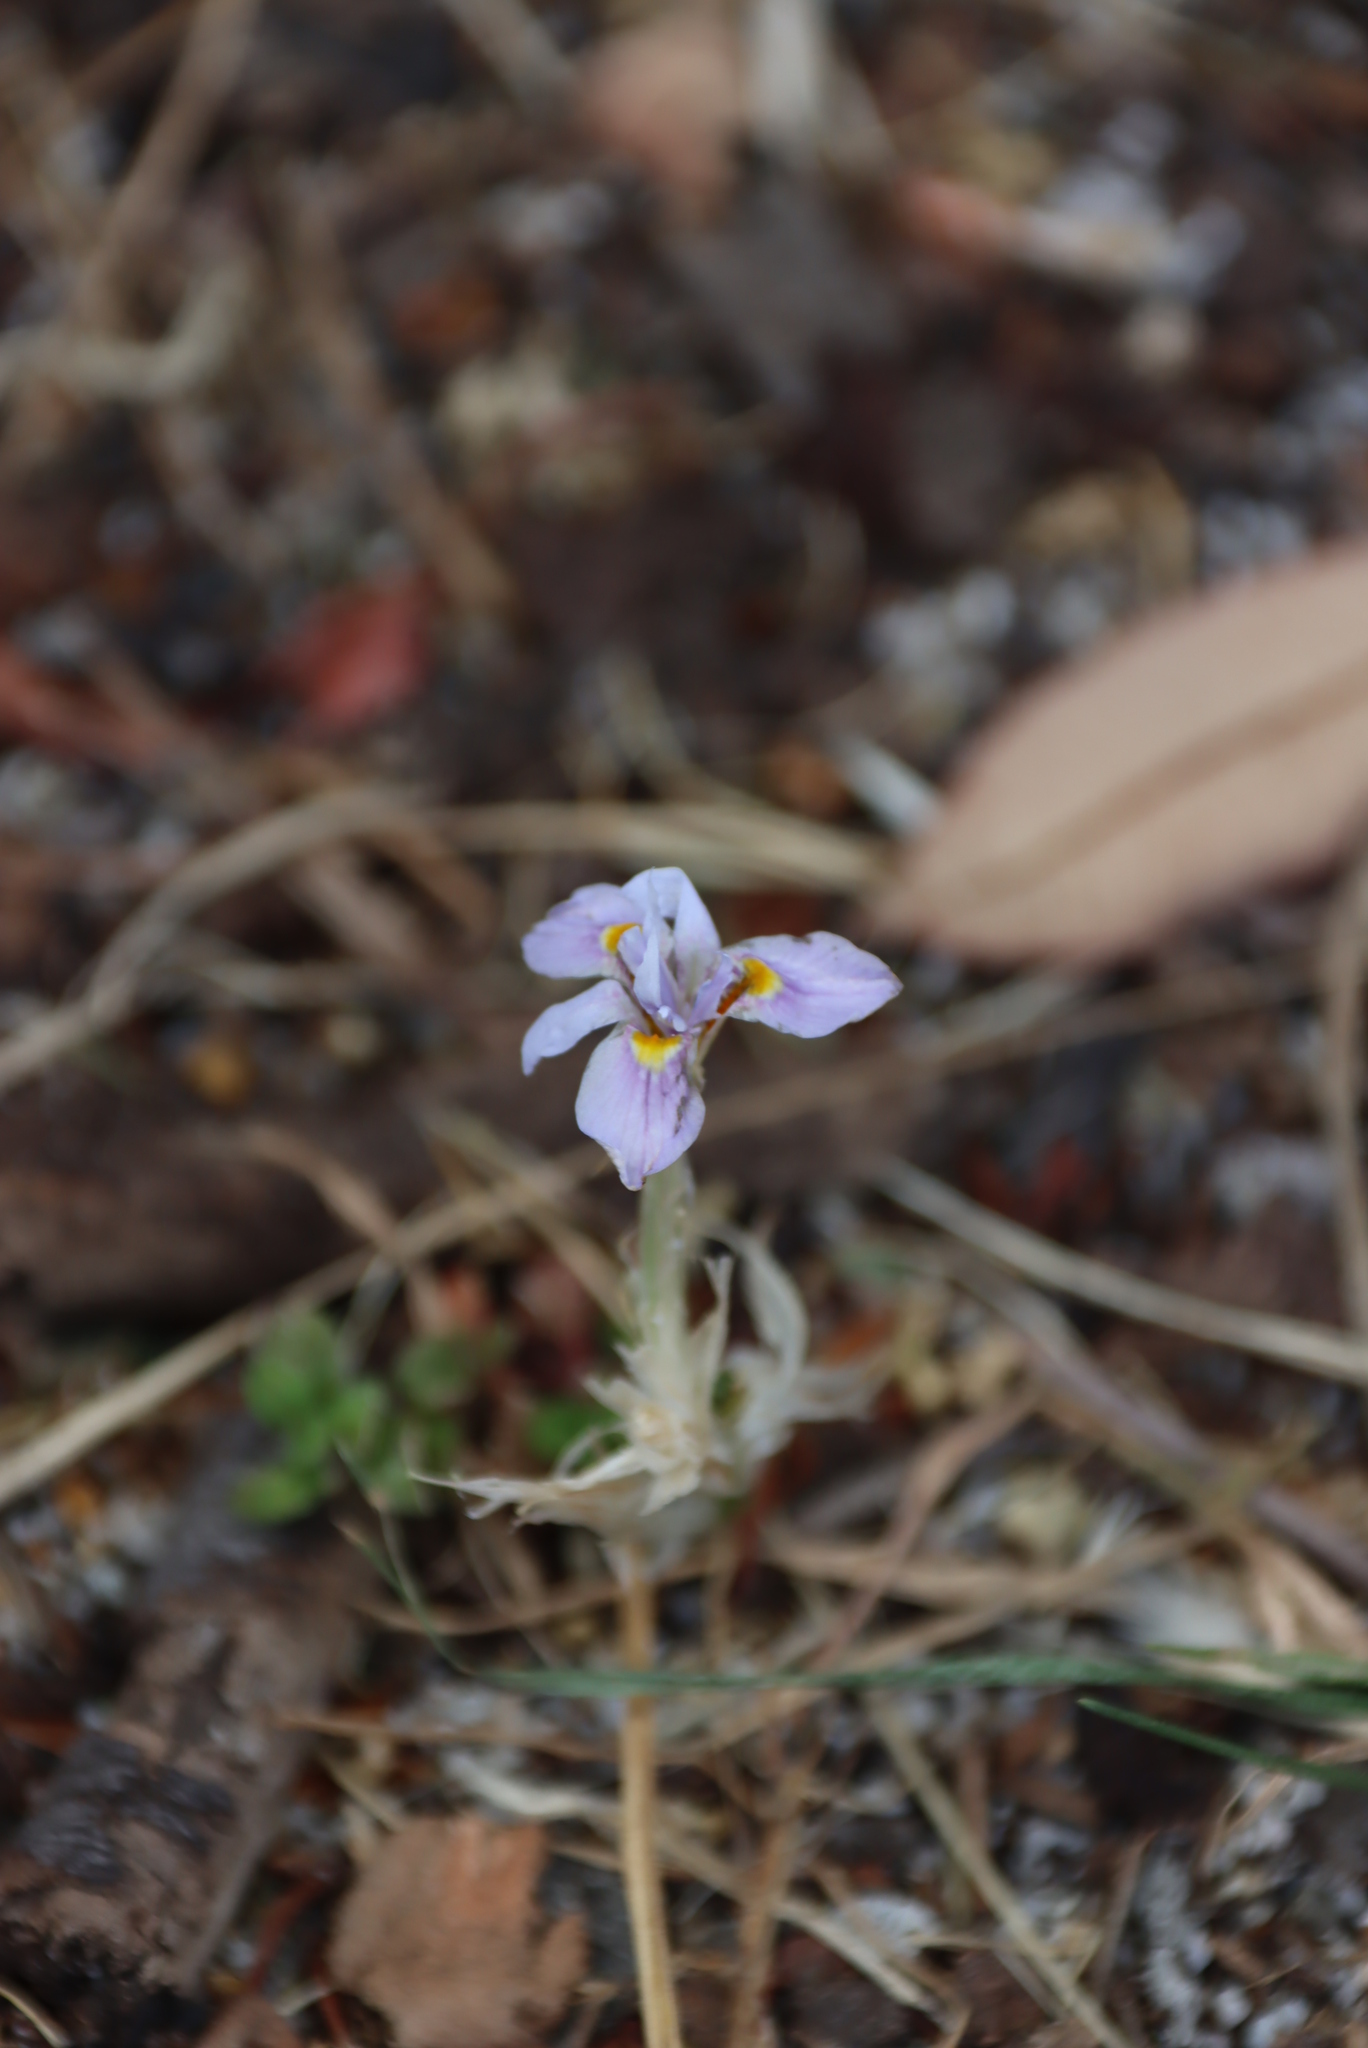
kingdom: Plantae
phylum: Tracheophyta
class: Liliopsida
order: Asparagales
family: Iridaceae
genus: Moraea
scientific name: Moraea setifolia
